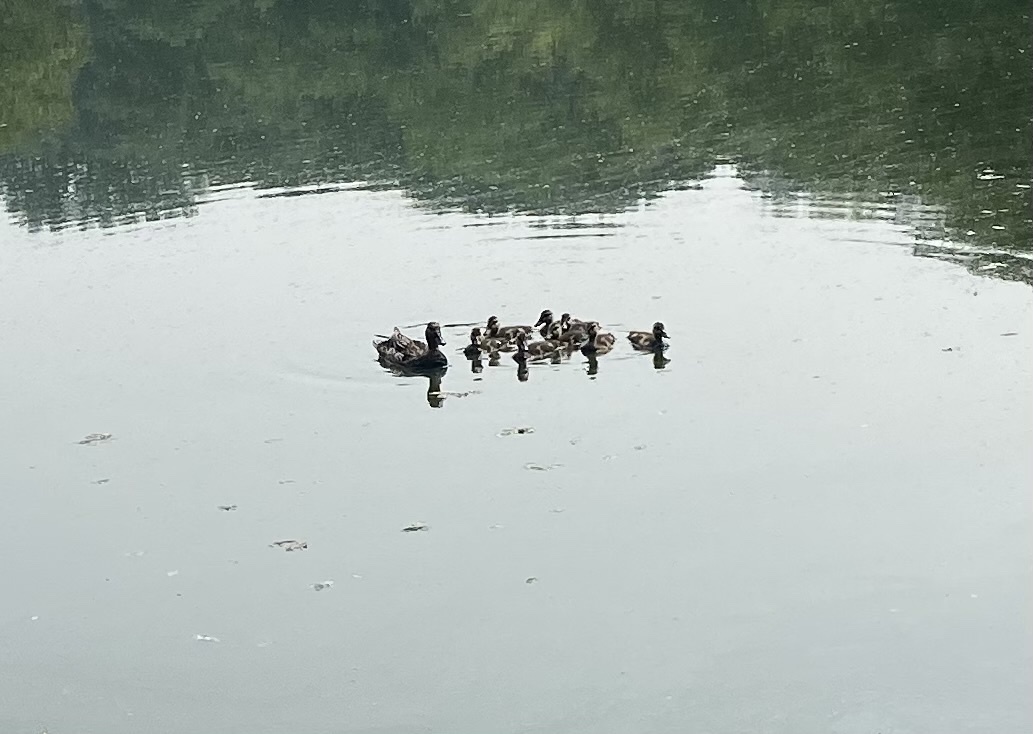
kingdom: Animalia
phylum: Chordata
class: Aves
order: Anseriformes
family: Anatidae
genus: Anas
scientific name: Anas platyrhynchos
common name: Mallard
